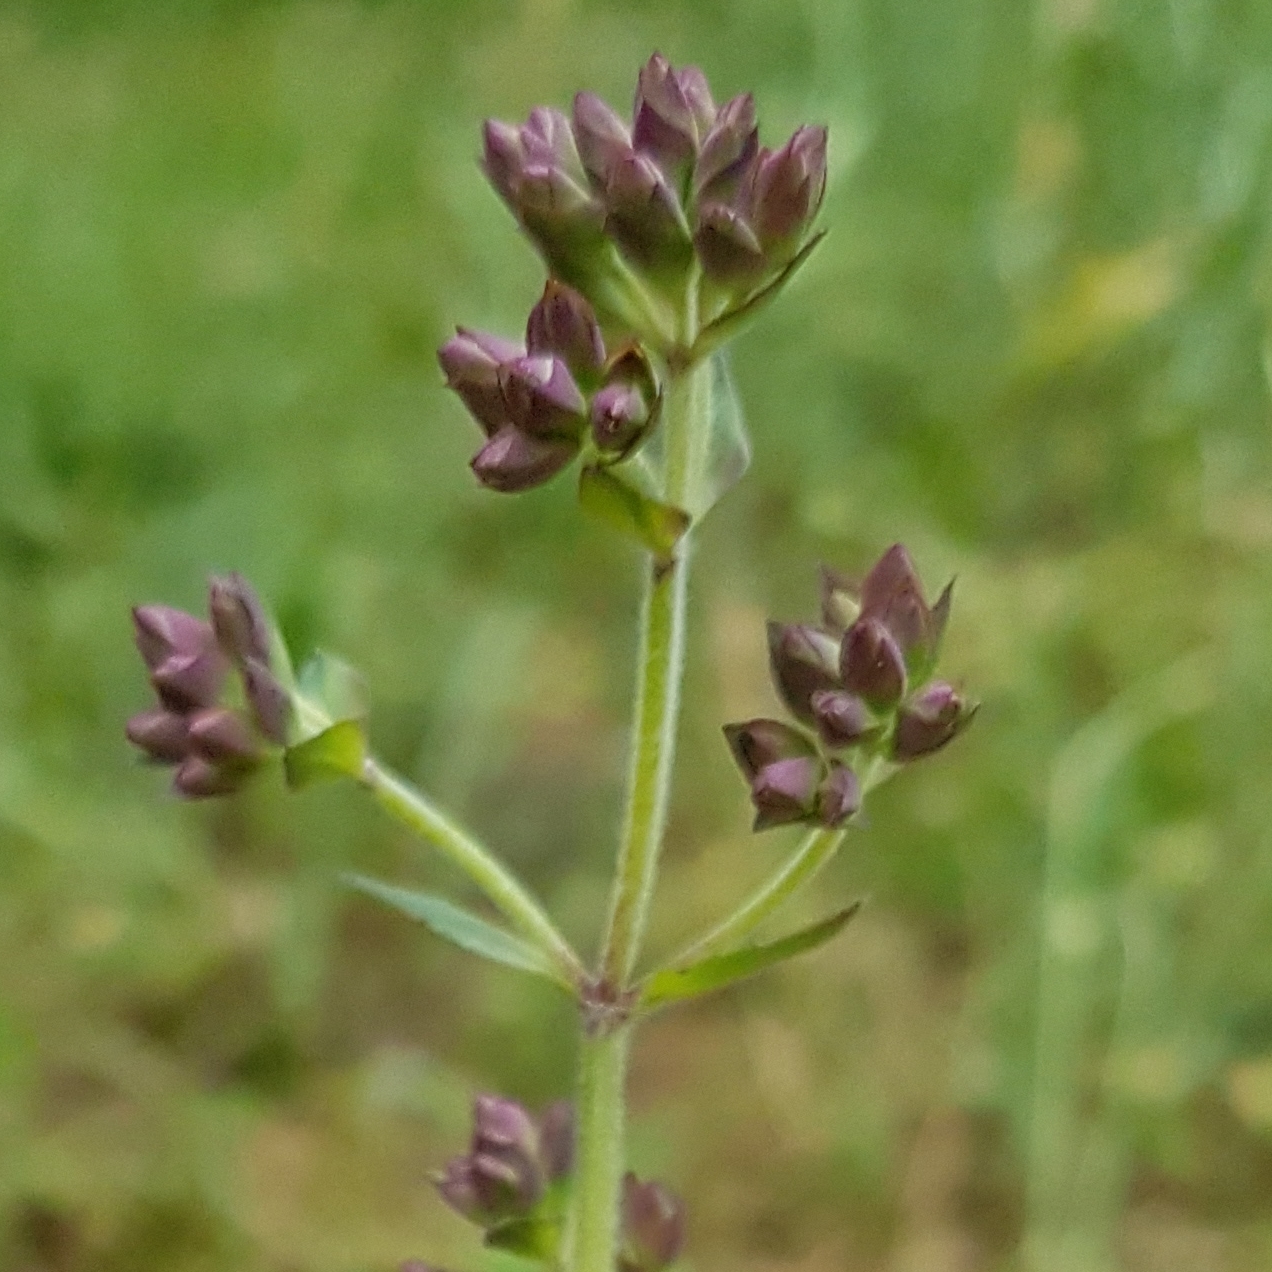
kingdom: Plantae
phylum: Tracheophyta
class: Magnoliopsida
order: Lamiales
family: Lamiaceae
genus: Origanum
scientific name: Origanum vulgare
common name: Wild marjoram
